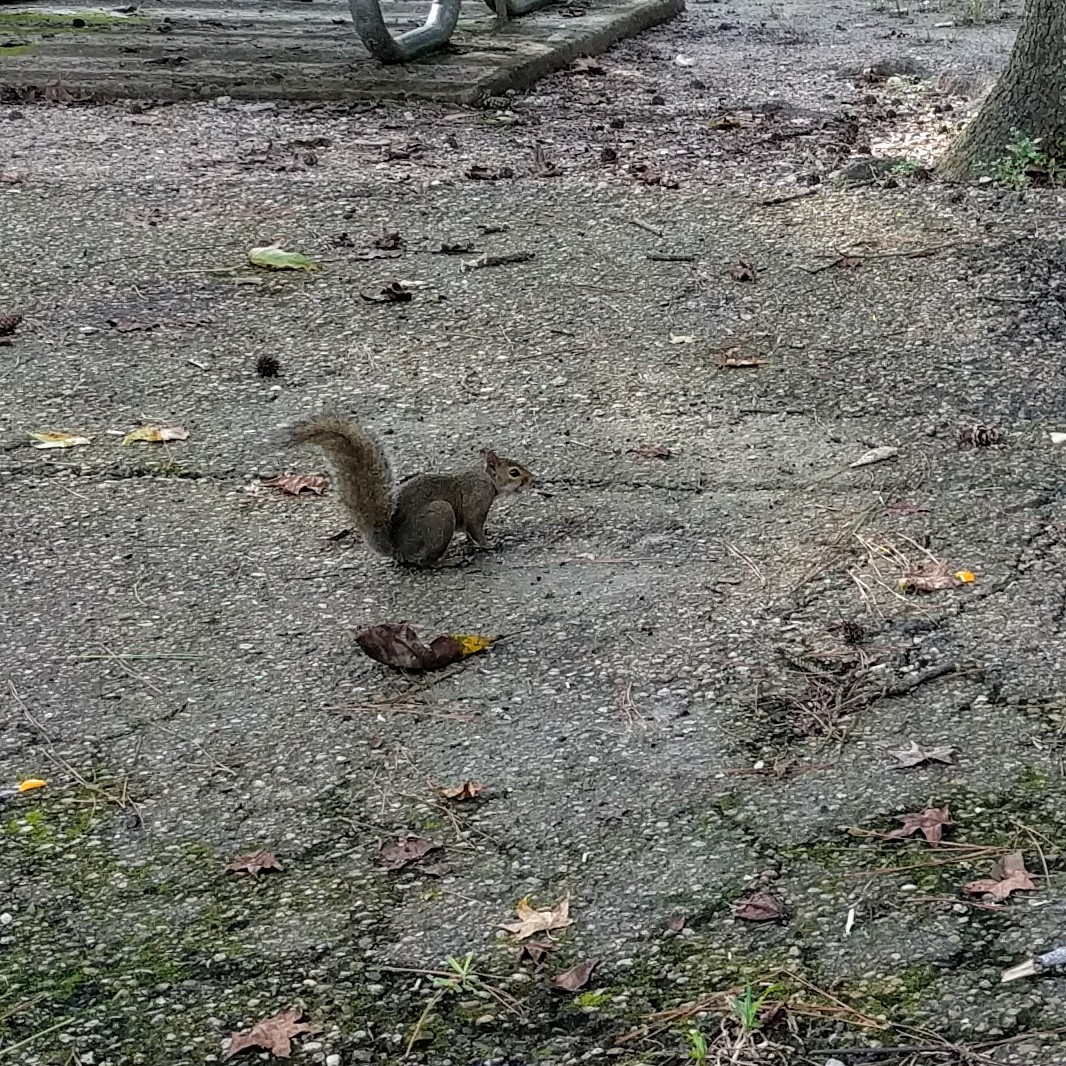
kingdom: Animalia
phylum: Chordata
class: Mammalia
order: Rodentia
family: Sciuridae
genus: Sciurus
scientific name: Sciurus carolinensis
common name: Eastern gray squirrel
